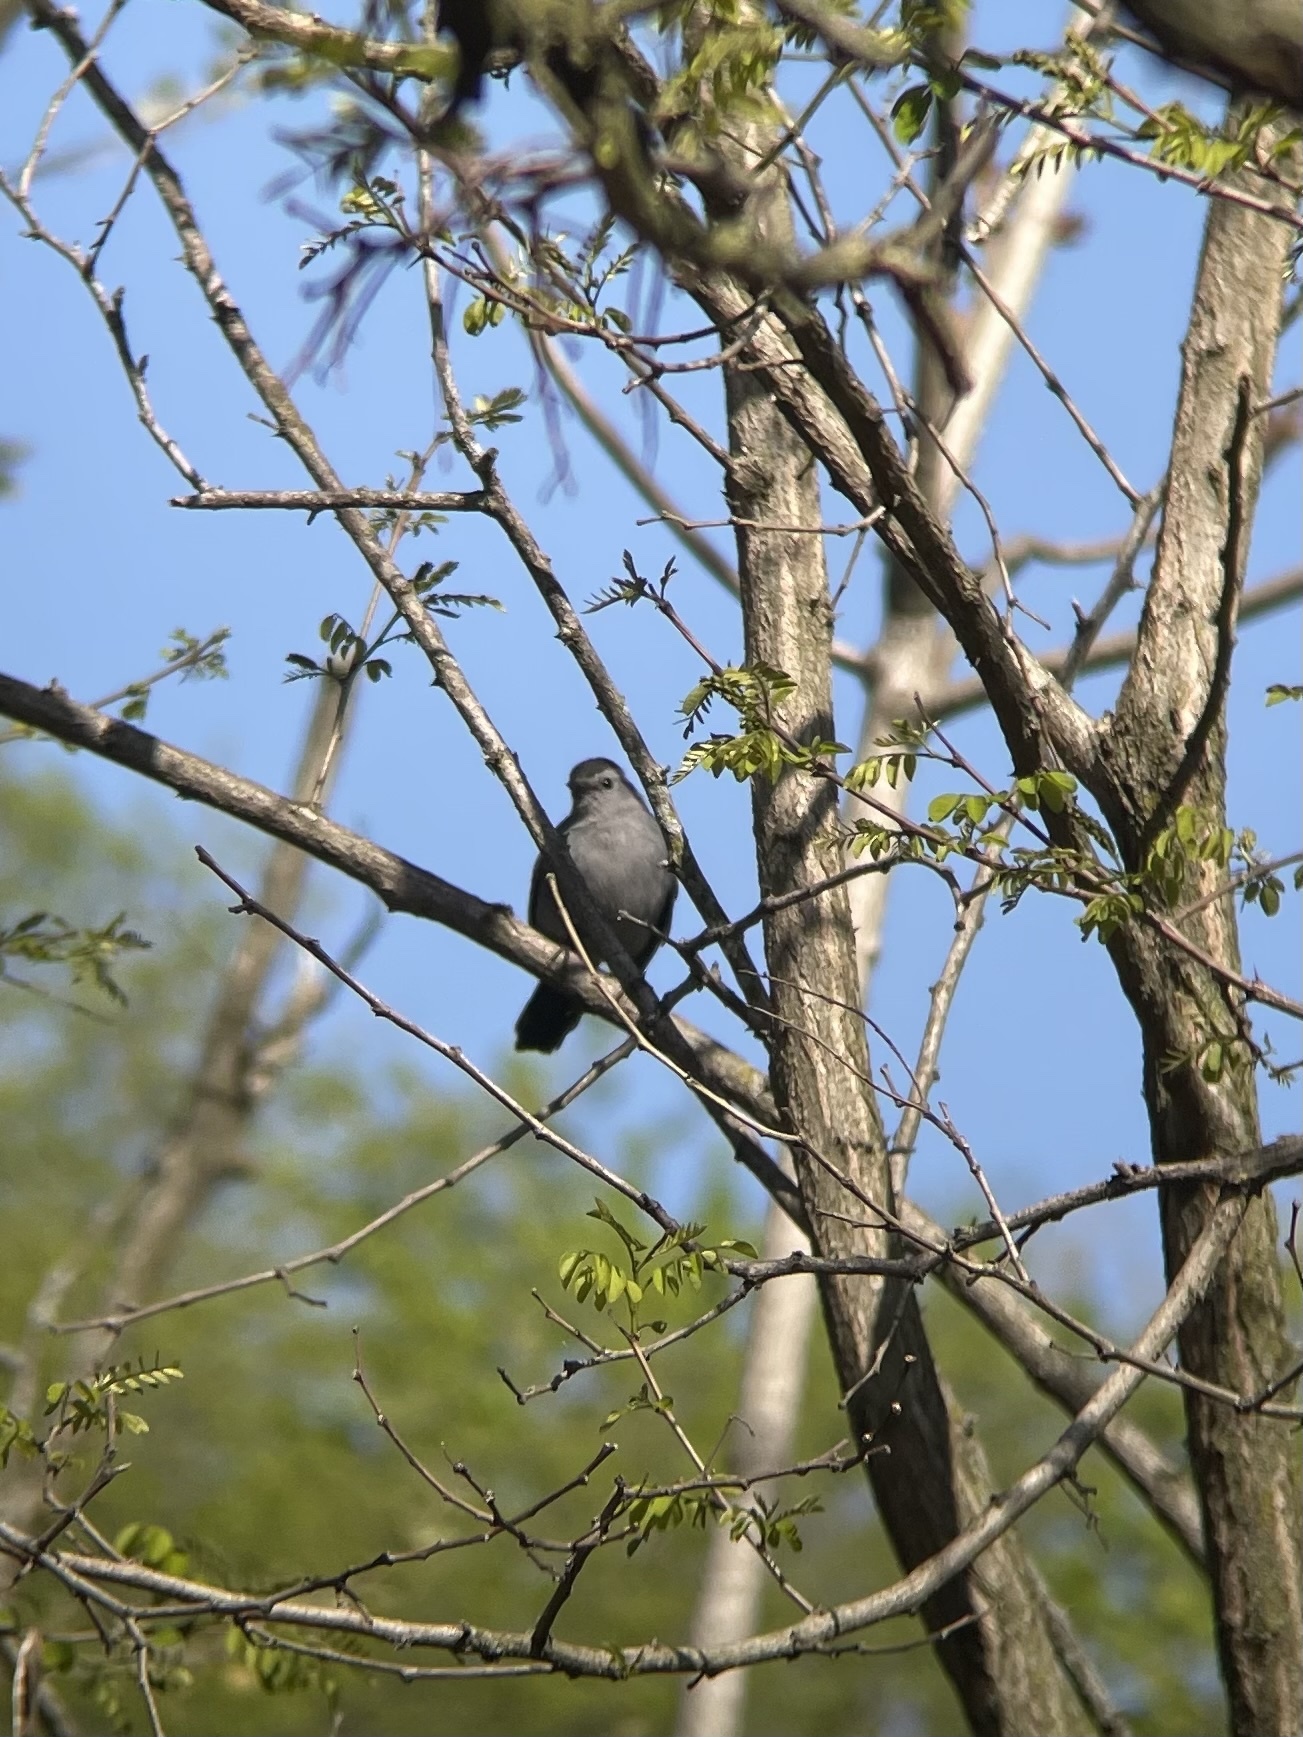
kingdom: Animalia
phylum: Chordata
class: Aves
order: Passeriformes
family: Mimidae
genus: Dumetella
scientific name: Dumetella carolinensis
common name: Gray catbird
